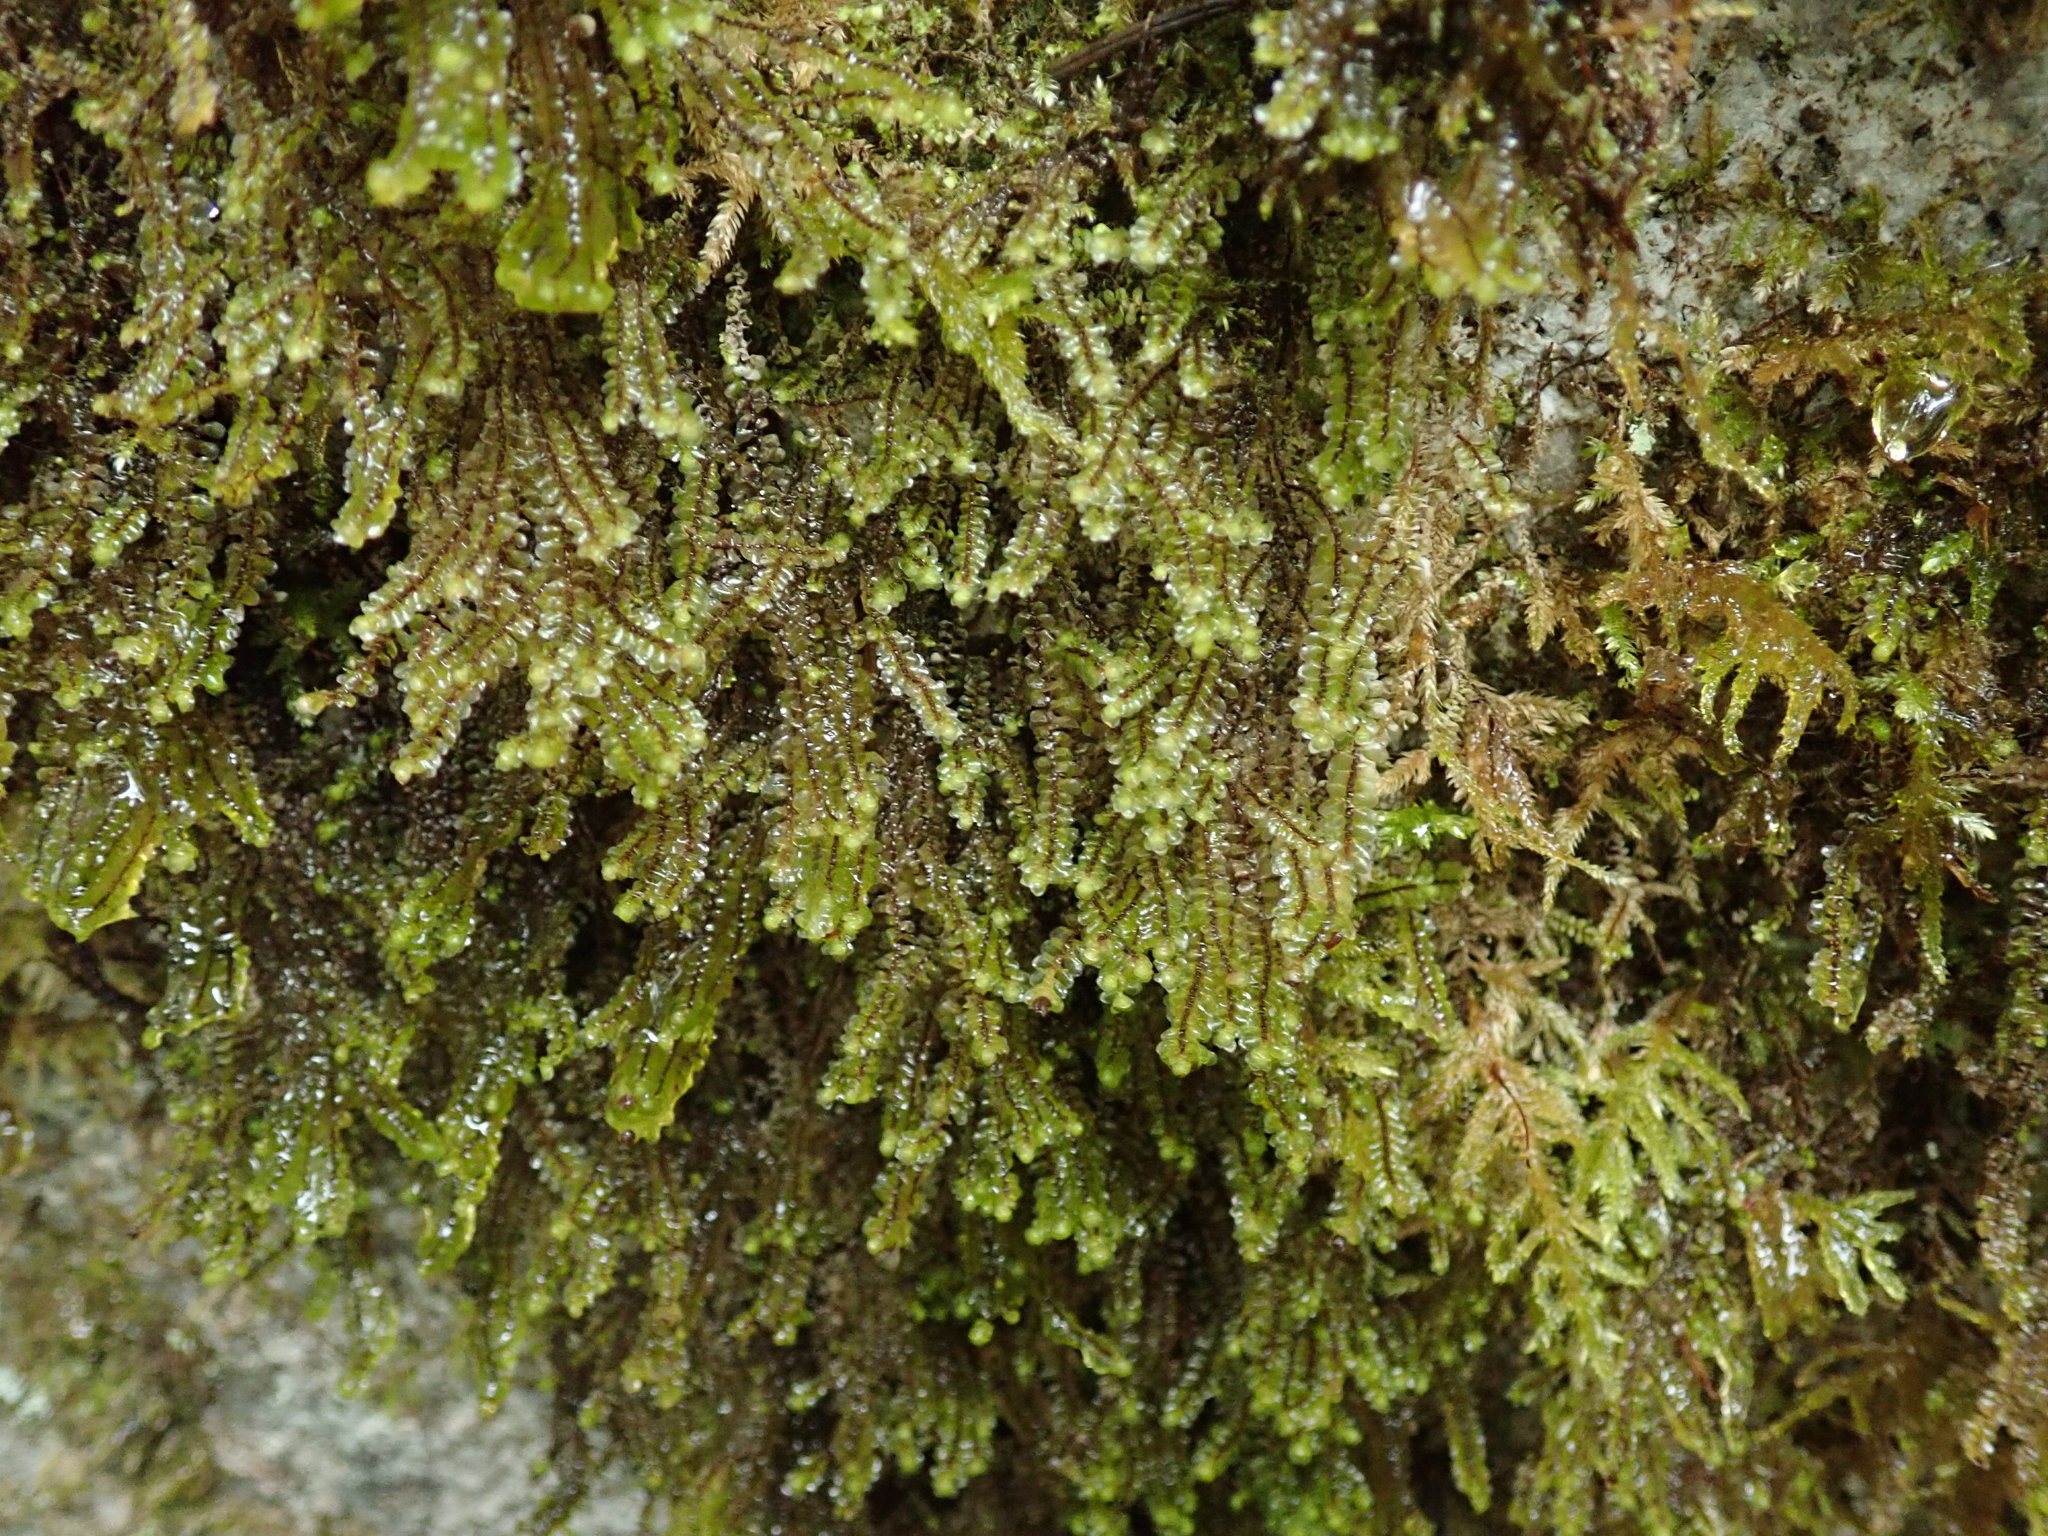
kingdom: Plantae
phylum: Marchantiophyta
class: Jungermanniopsida
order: Jungermanniales
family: Scapaniaceae
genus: Scapania
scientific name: Scapania americana
